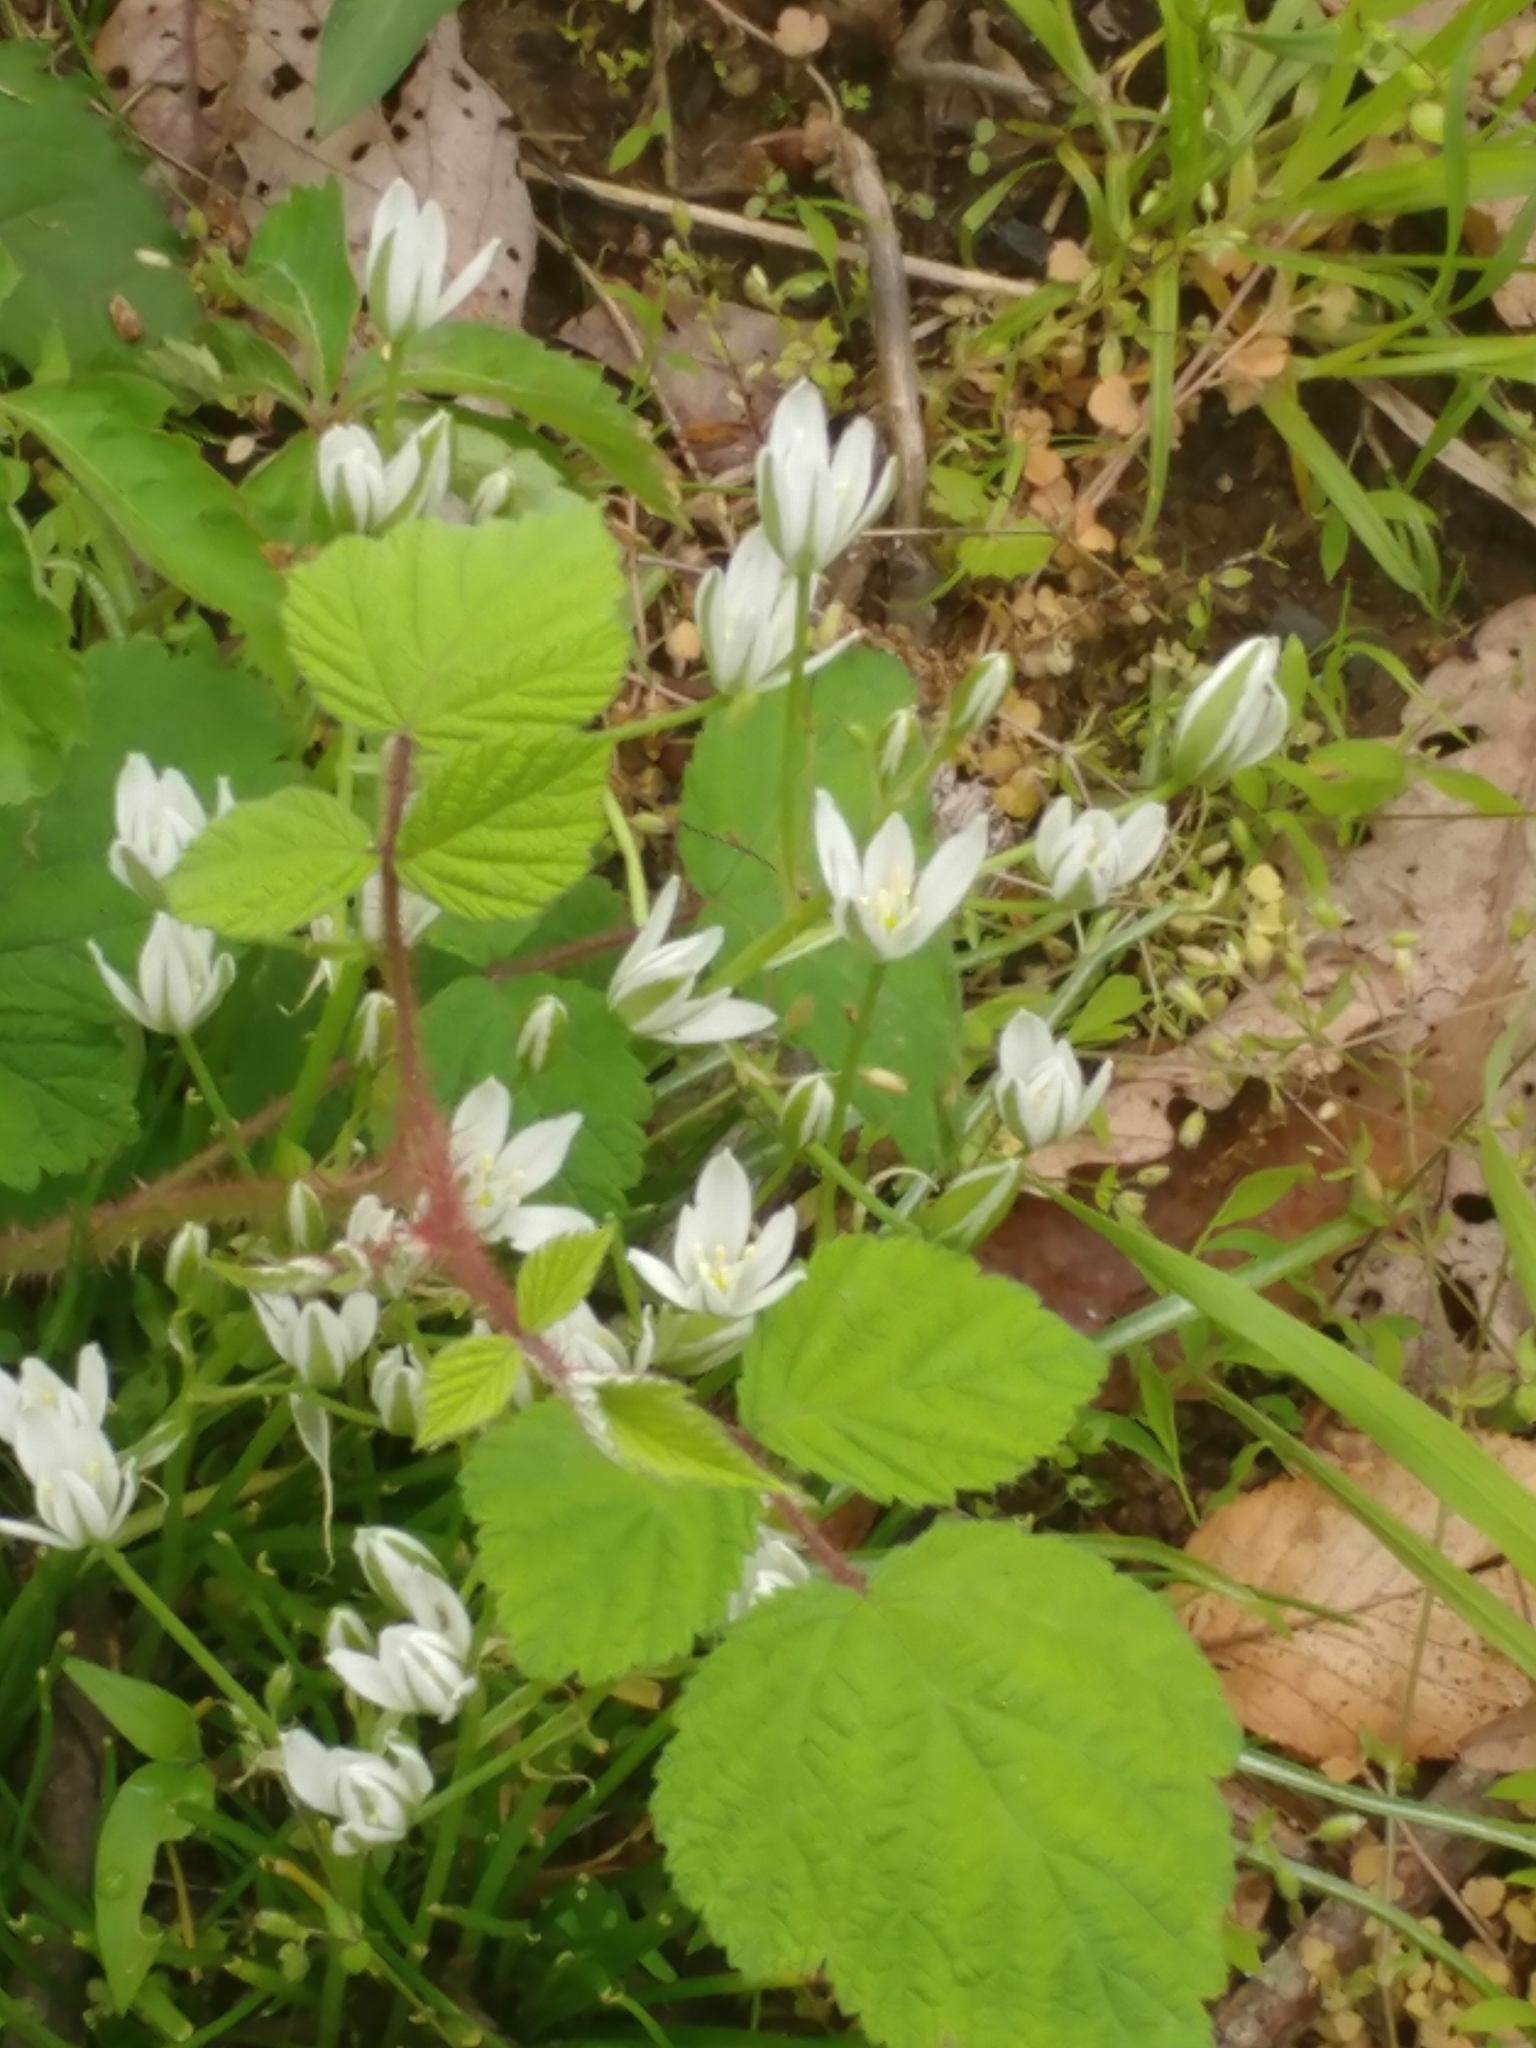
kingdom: Plantae
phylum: Tracheophyta
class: Liliopsida
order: Asparagales
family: Asparagaceae
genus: Ornithogalum
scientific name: Ornithogalum umbellatum
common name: Garden star-of-bethlehem
